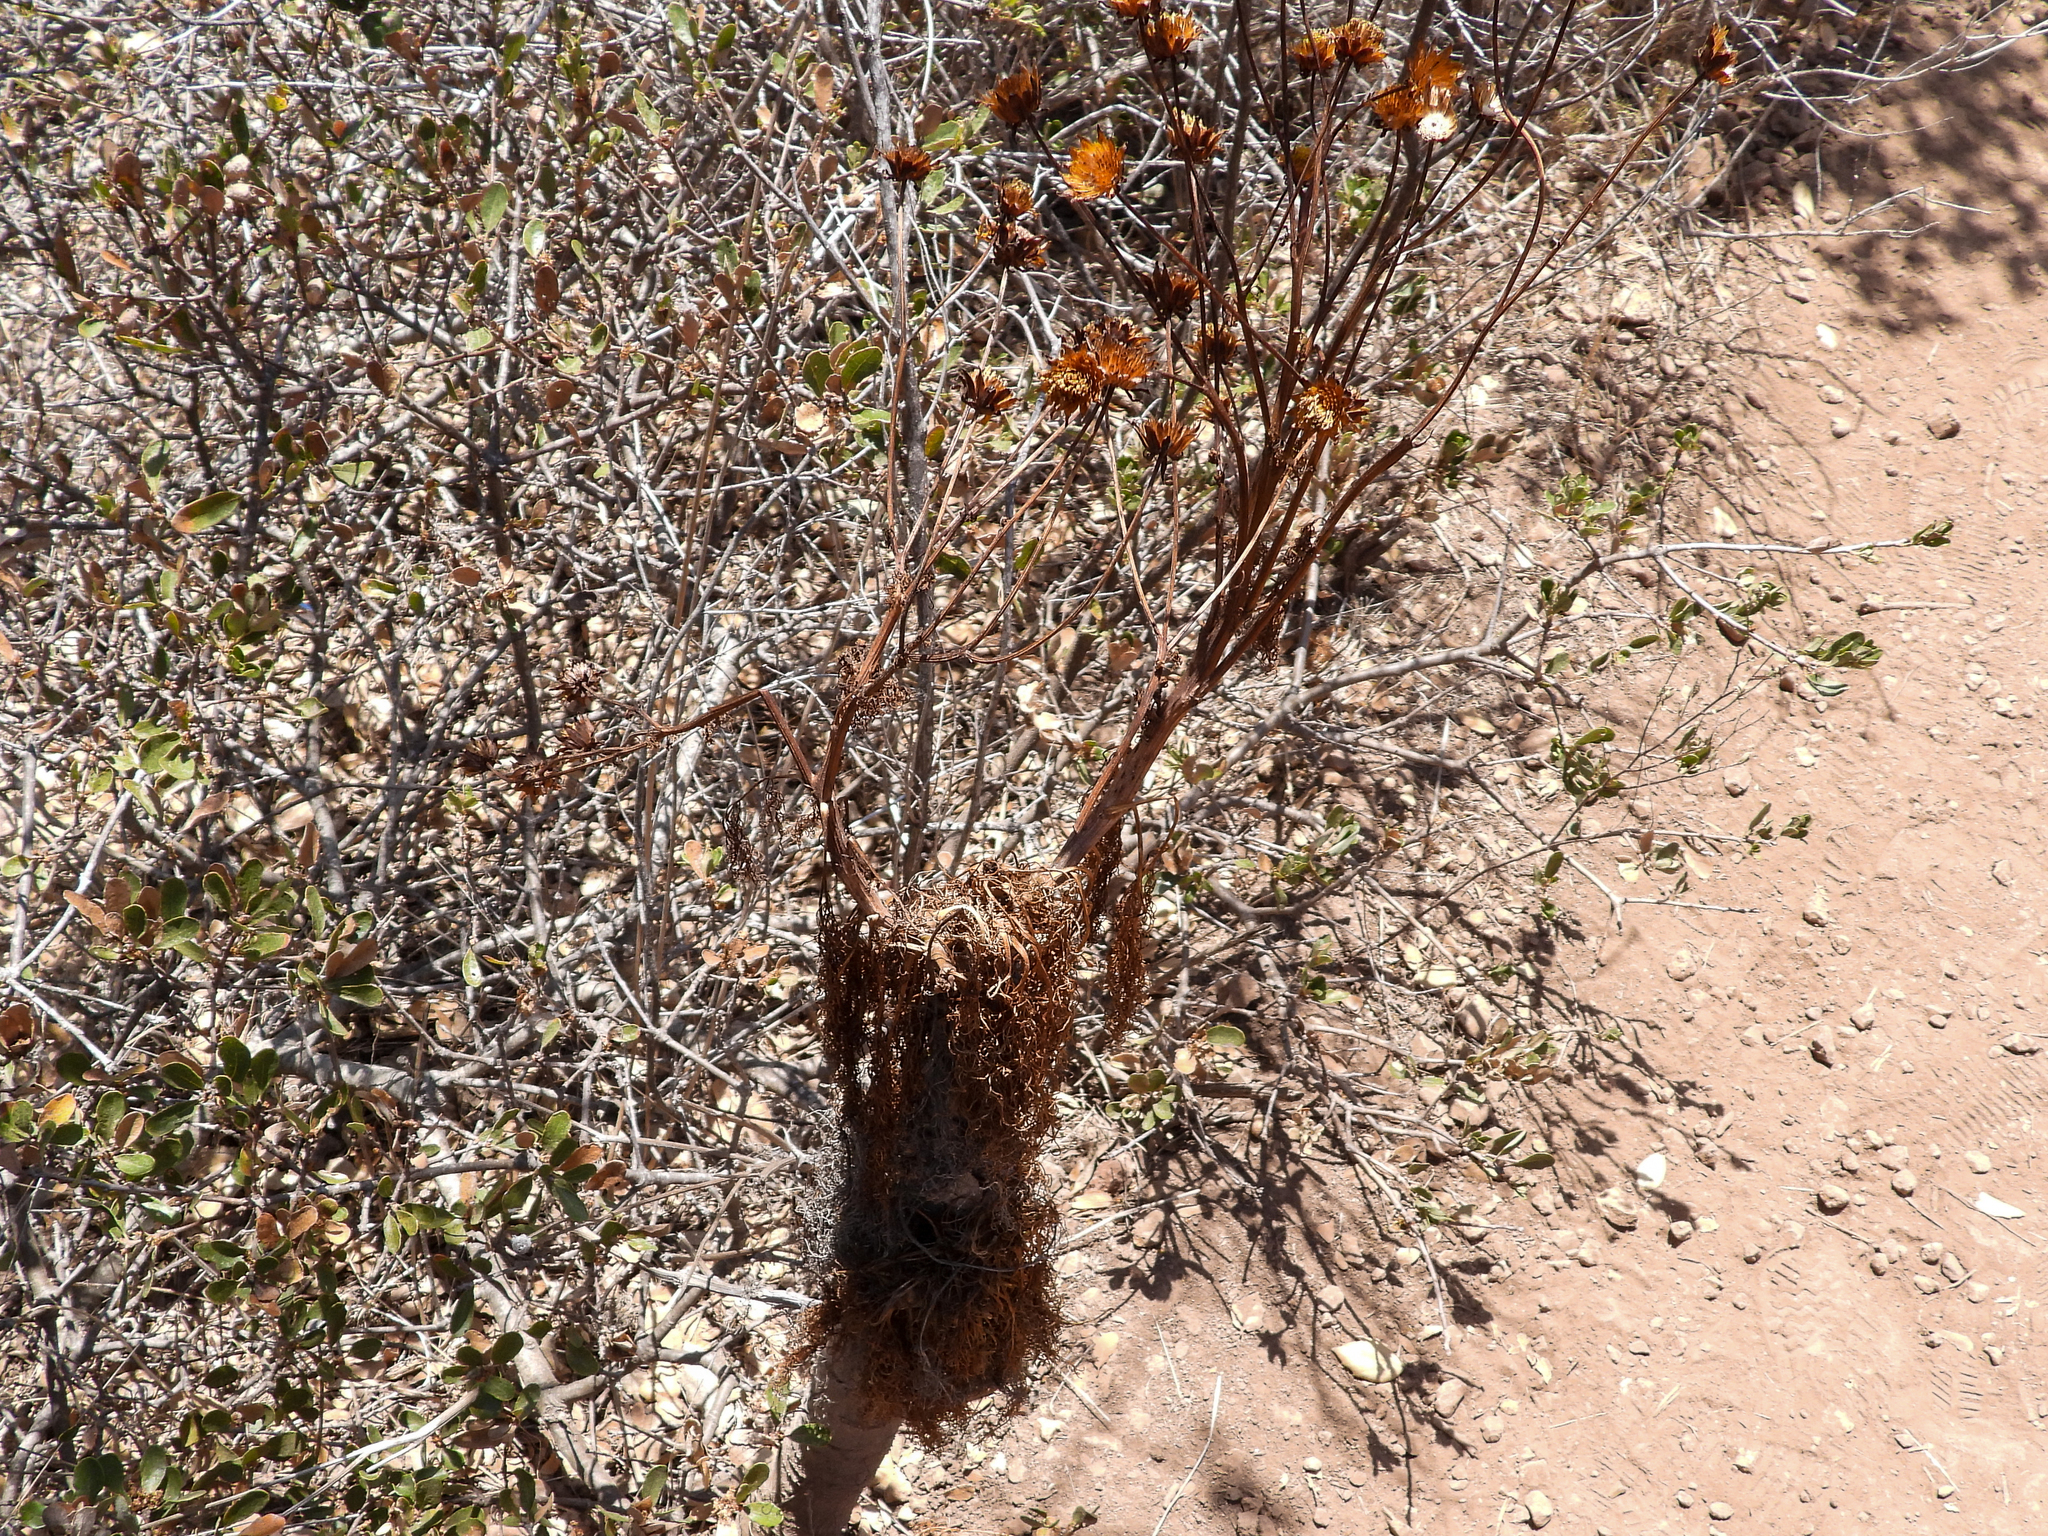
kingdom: Plantae
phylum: Tracheophyta
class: Magnoliopsida
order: Asterales
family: Asteraceae
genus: Coreopsis
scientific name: Coreopsis gigantea
